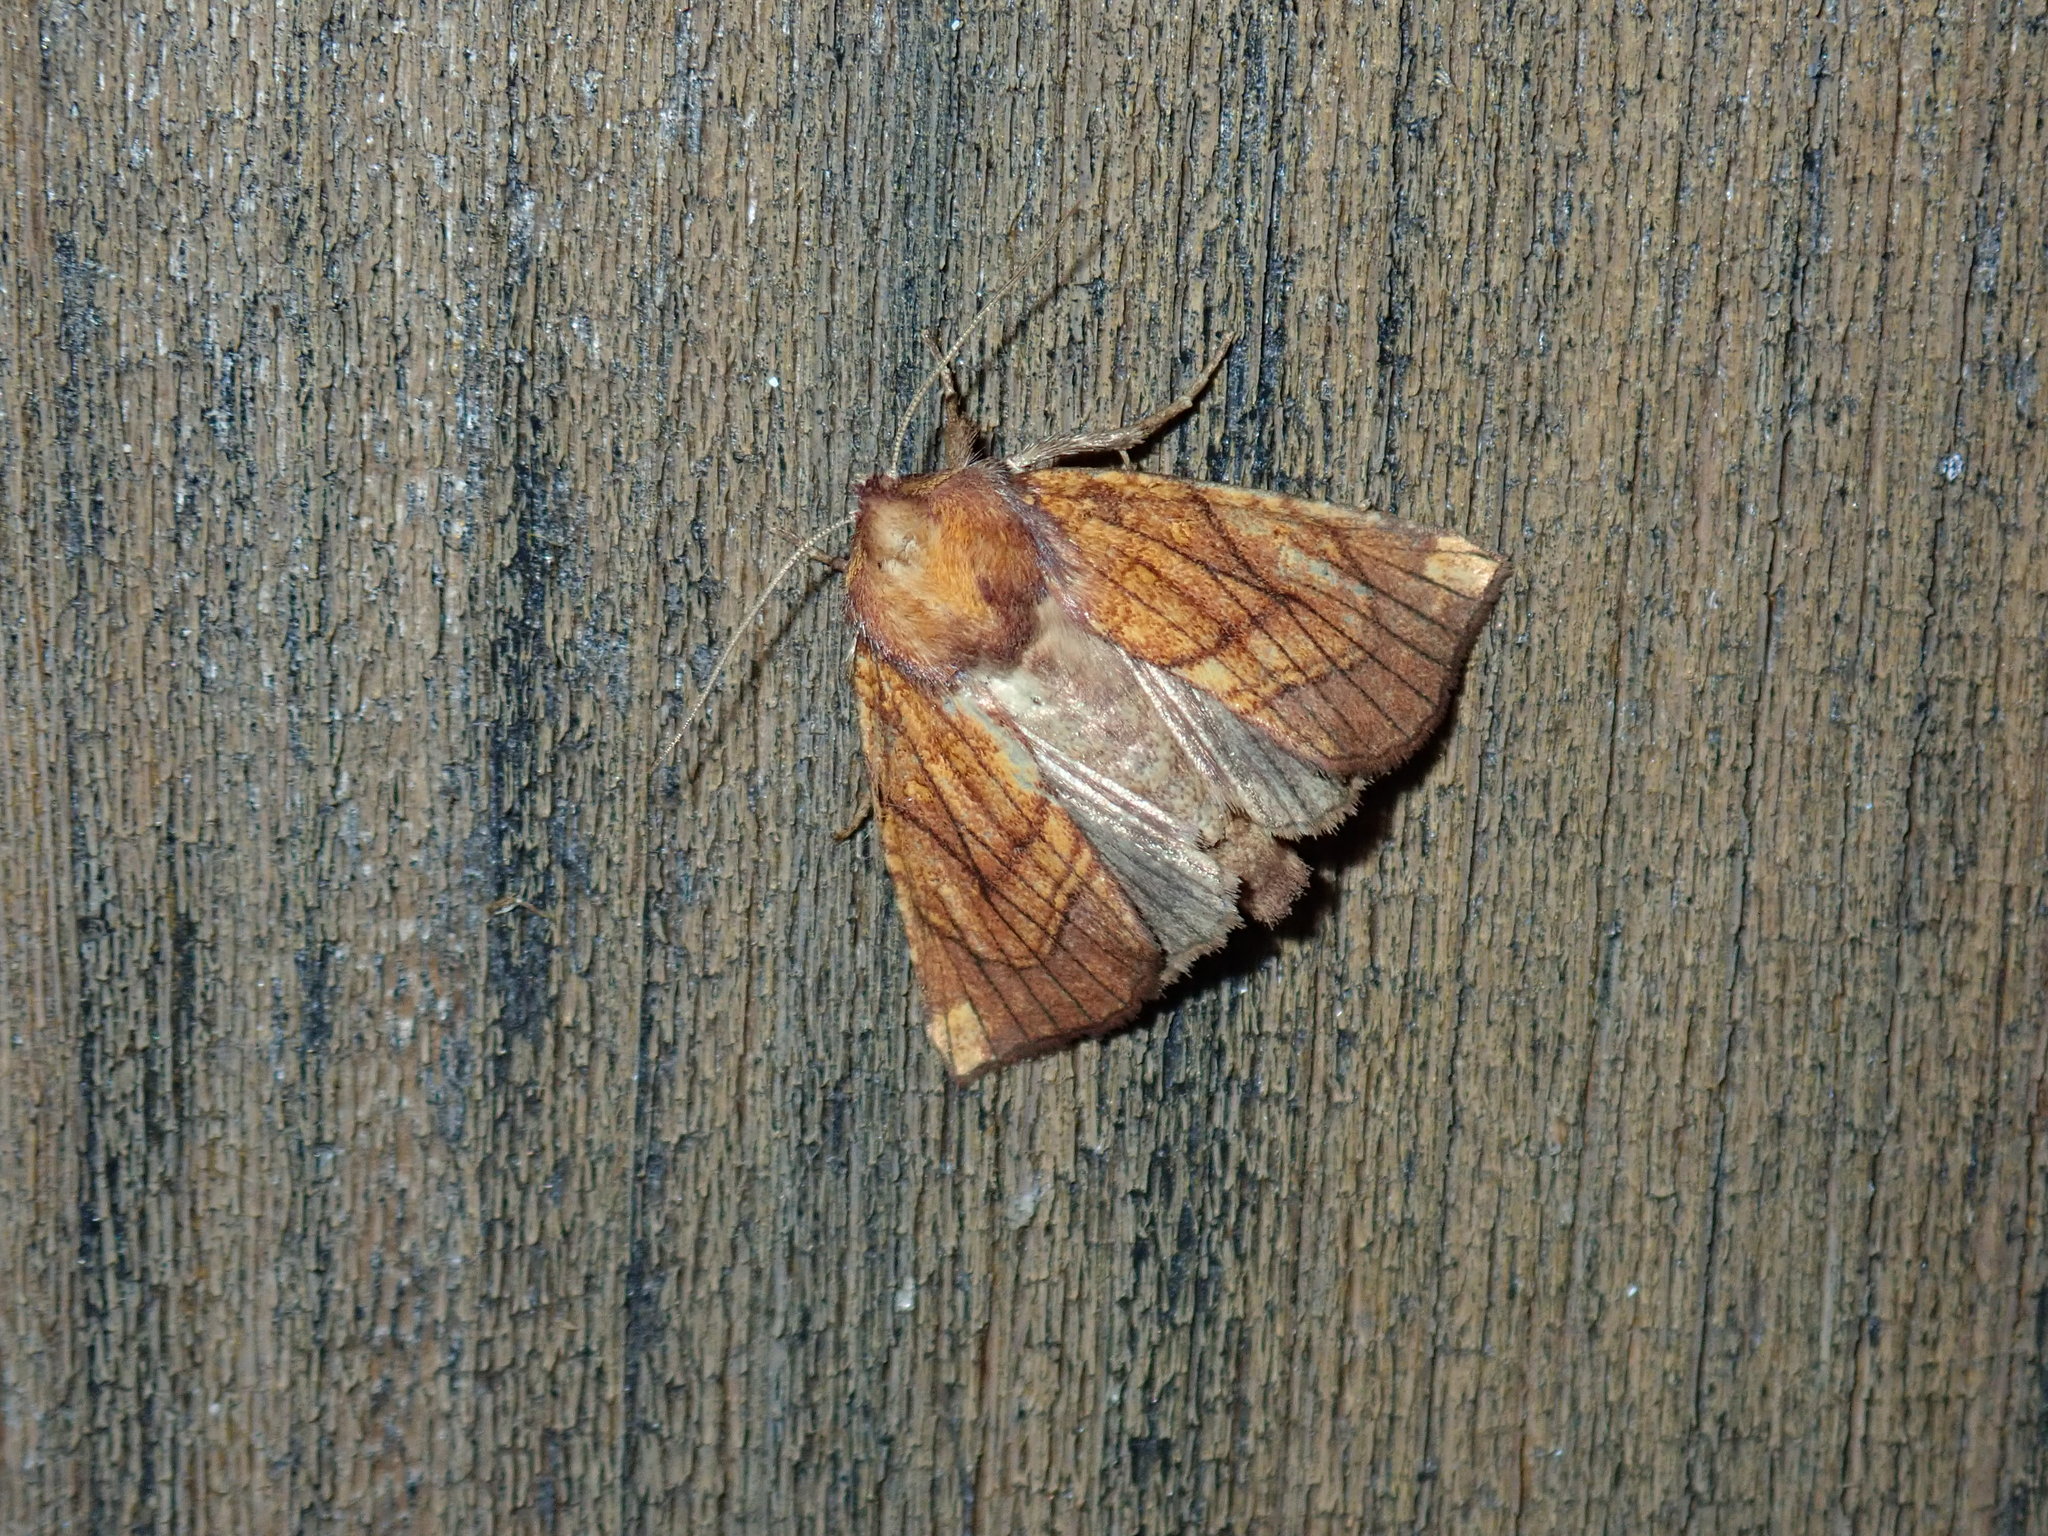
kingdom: Animalia
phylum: Arthropoda
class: Insecta
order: Lepidoptera
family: Noctuidae
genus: Papaipema
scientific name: Papaipema inquaesita
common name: Sensitive fern borer moth
